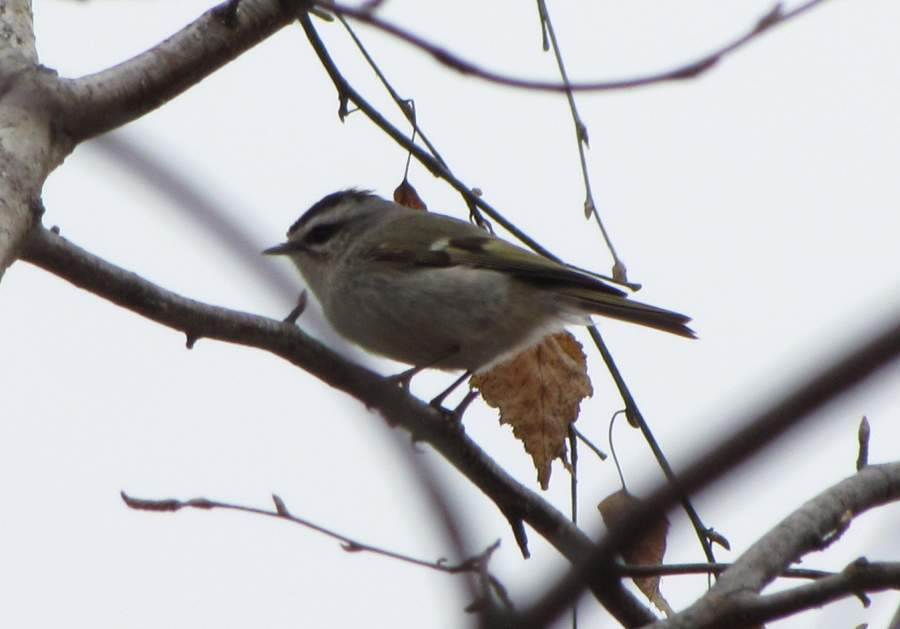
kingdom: Animalia
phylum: Chordata
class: Aves
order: Passeriformes
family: Regulidae
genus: Regulus
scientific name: Regulus satrapa
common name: Golden-crowned kinglet
